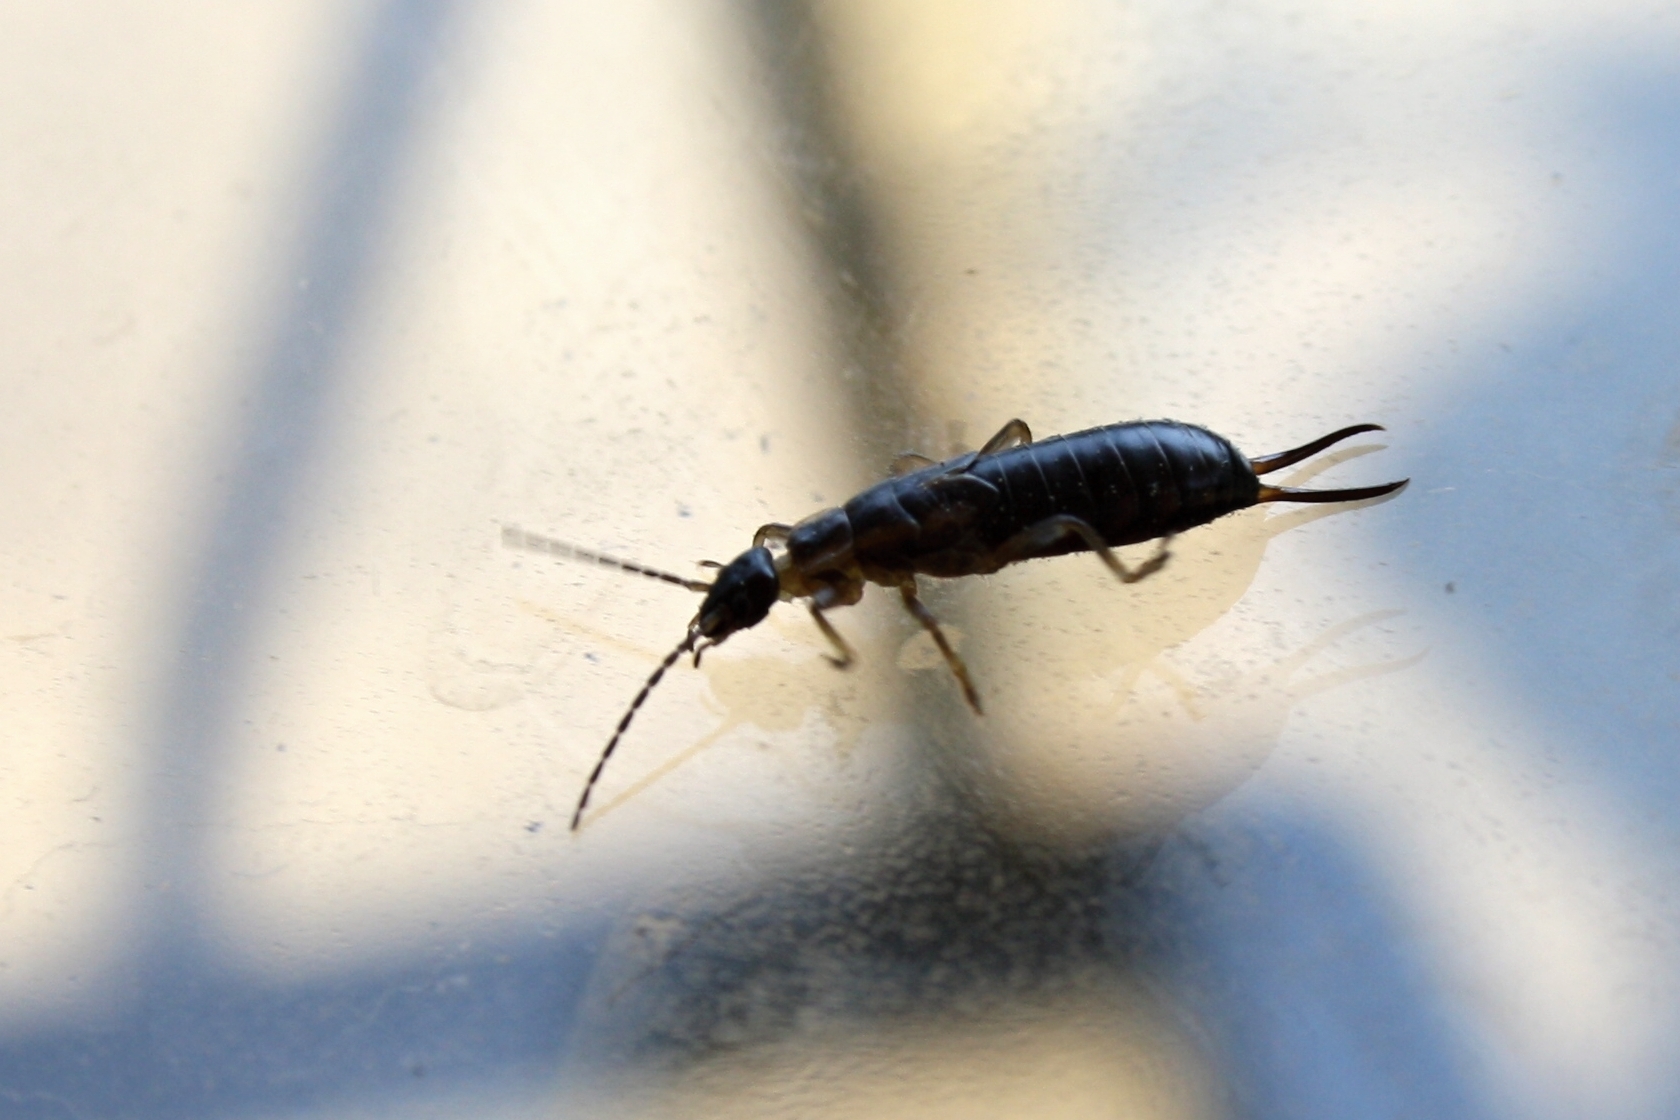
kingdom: Animalia
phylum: Arthropoda
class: Insecta
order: Dermaptera
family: Forficulidae
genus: Forficula
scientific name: Forficula
